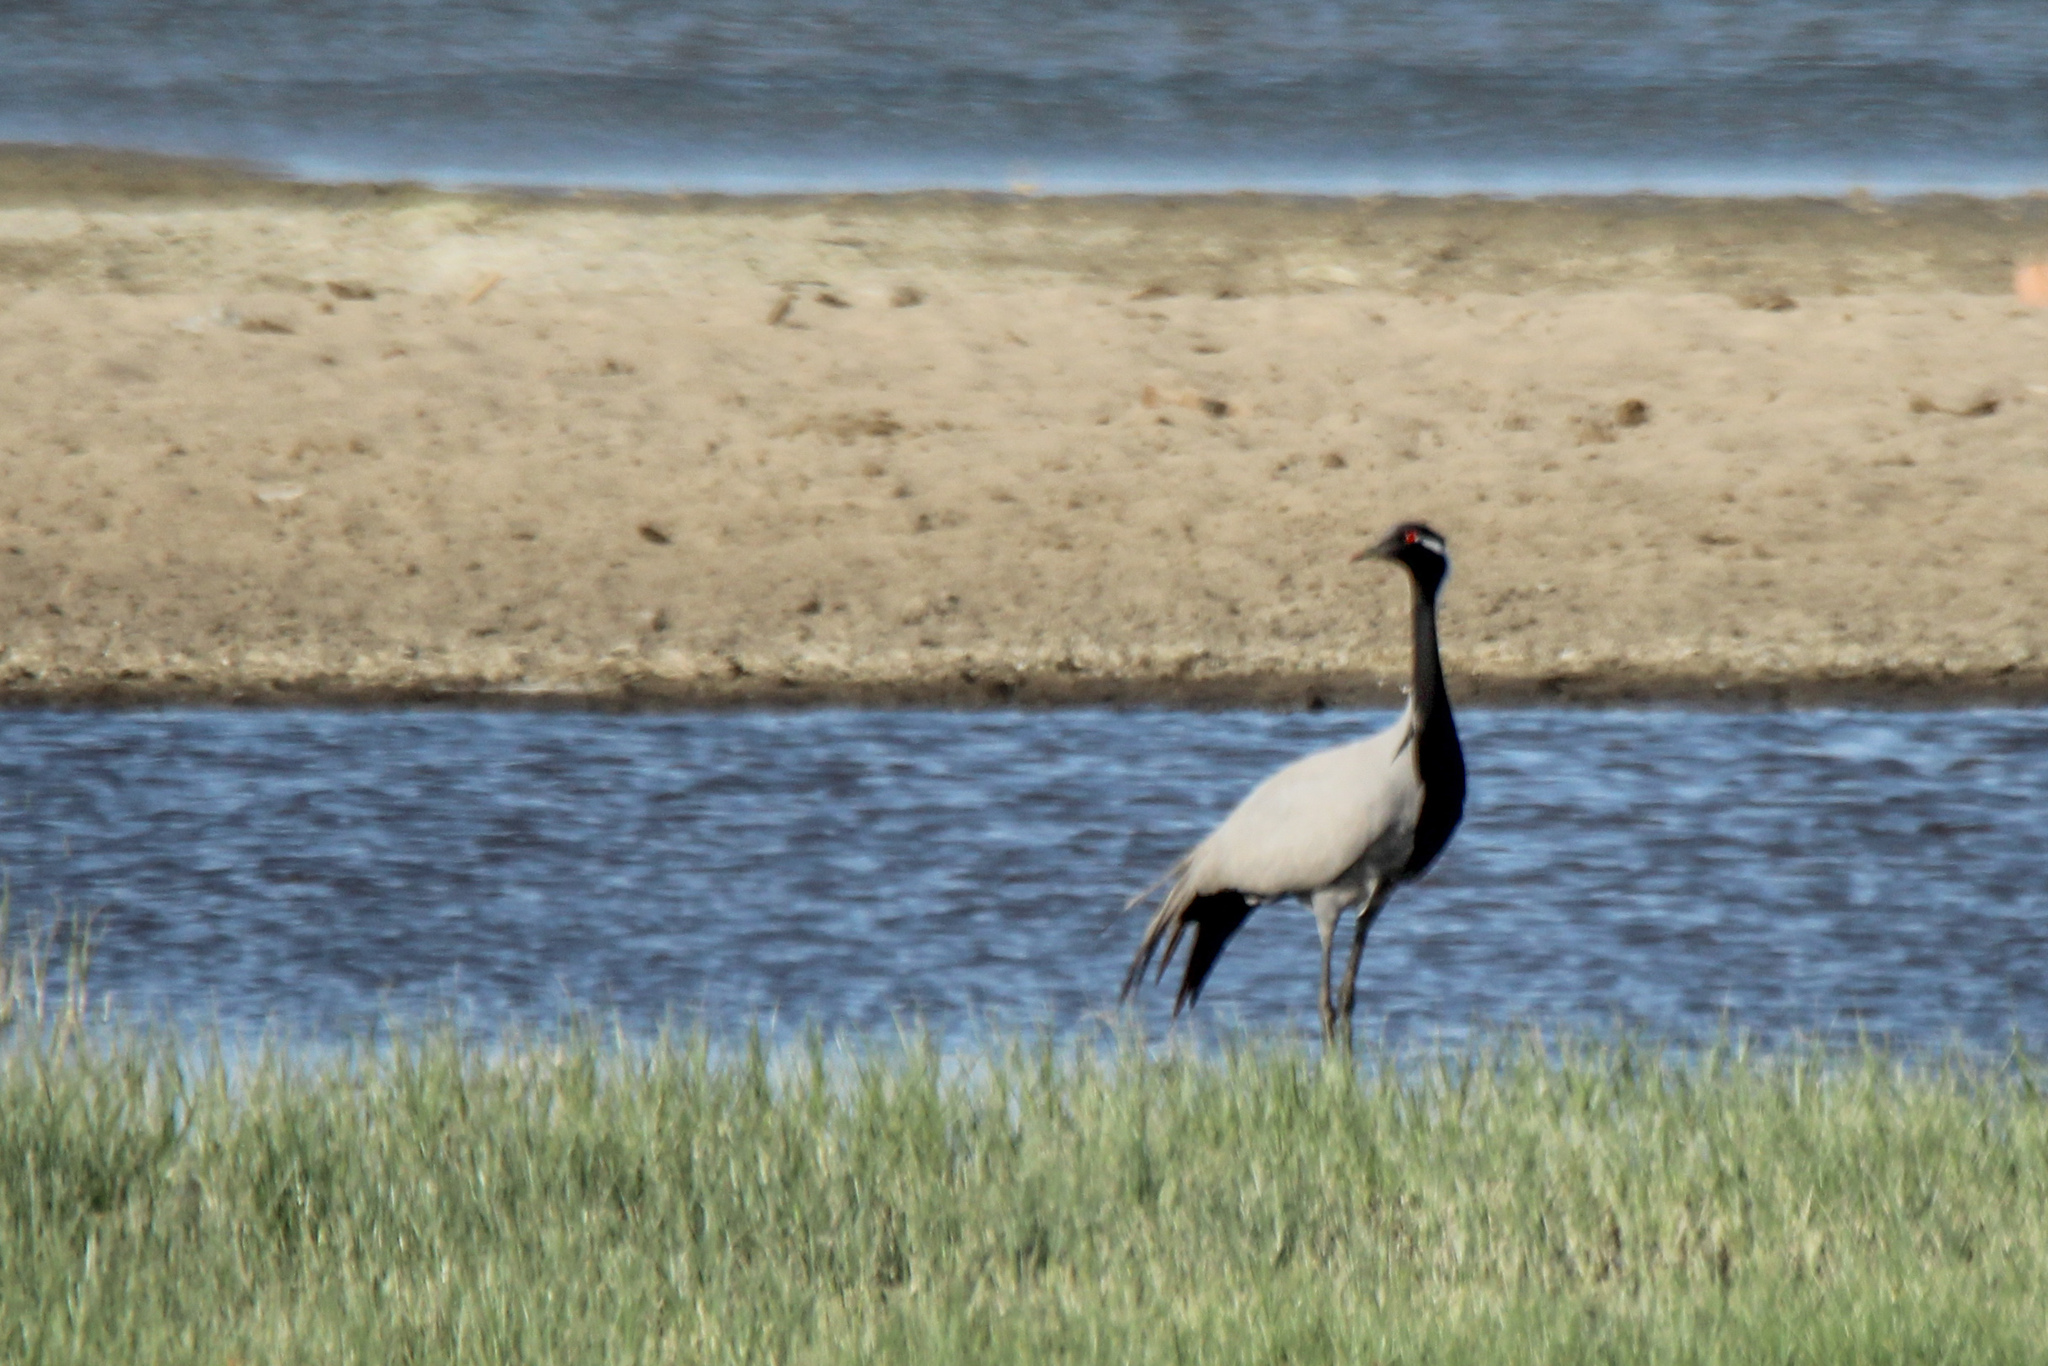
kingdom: Animalia
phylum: Chordata
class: Aves
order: Gruiformes
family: Gruidae
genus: Anthropoides
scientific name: Anthropoides virgo
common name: Demoiselle crane
